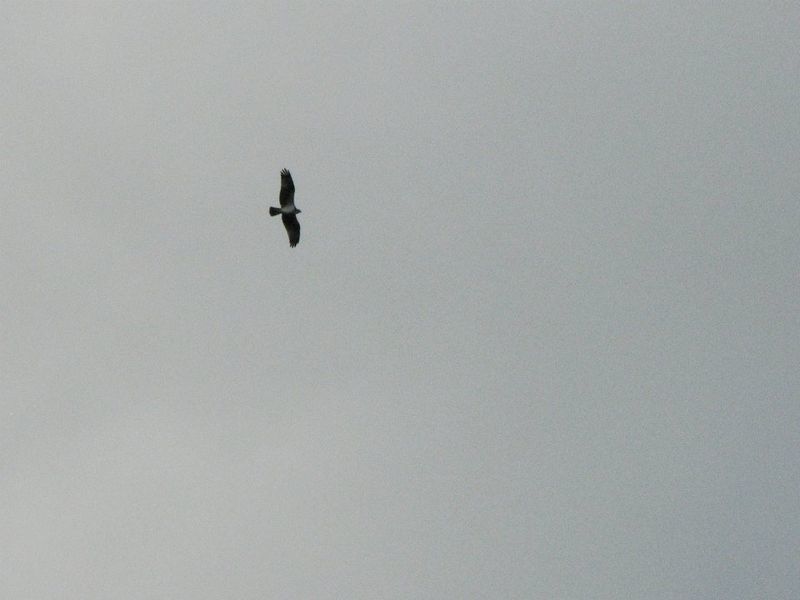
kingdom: Animalia
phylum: Chordata
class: Aves
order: Accipitriformes
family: Pandionidae
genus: Pandion
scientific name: Pandion haliaetus
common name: Osprey
